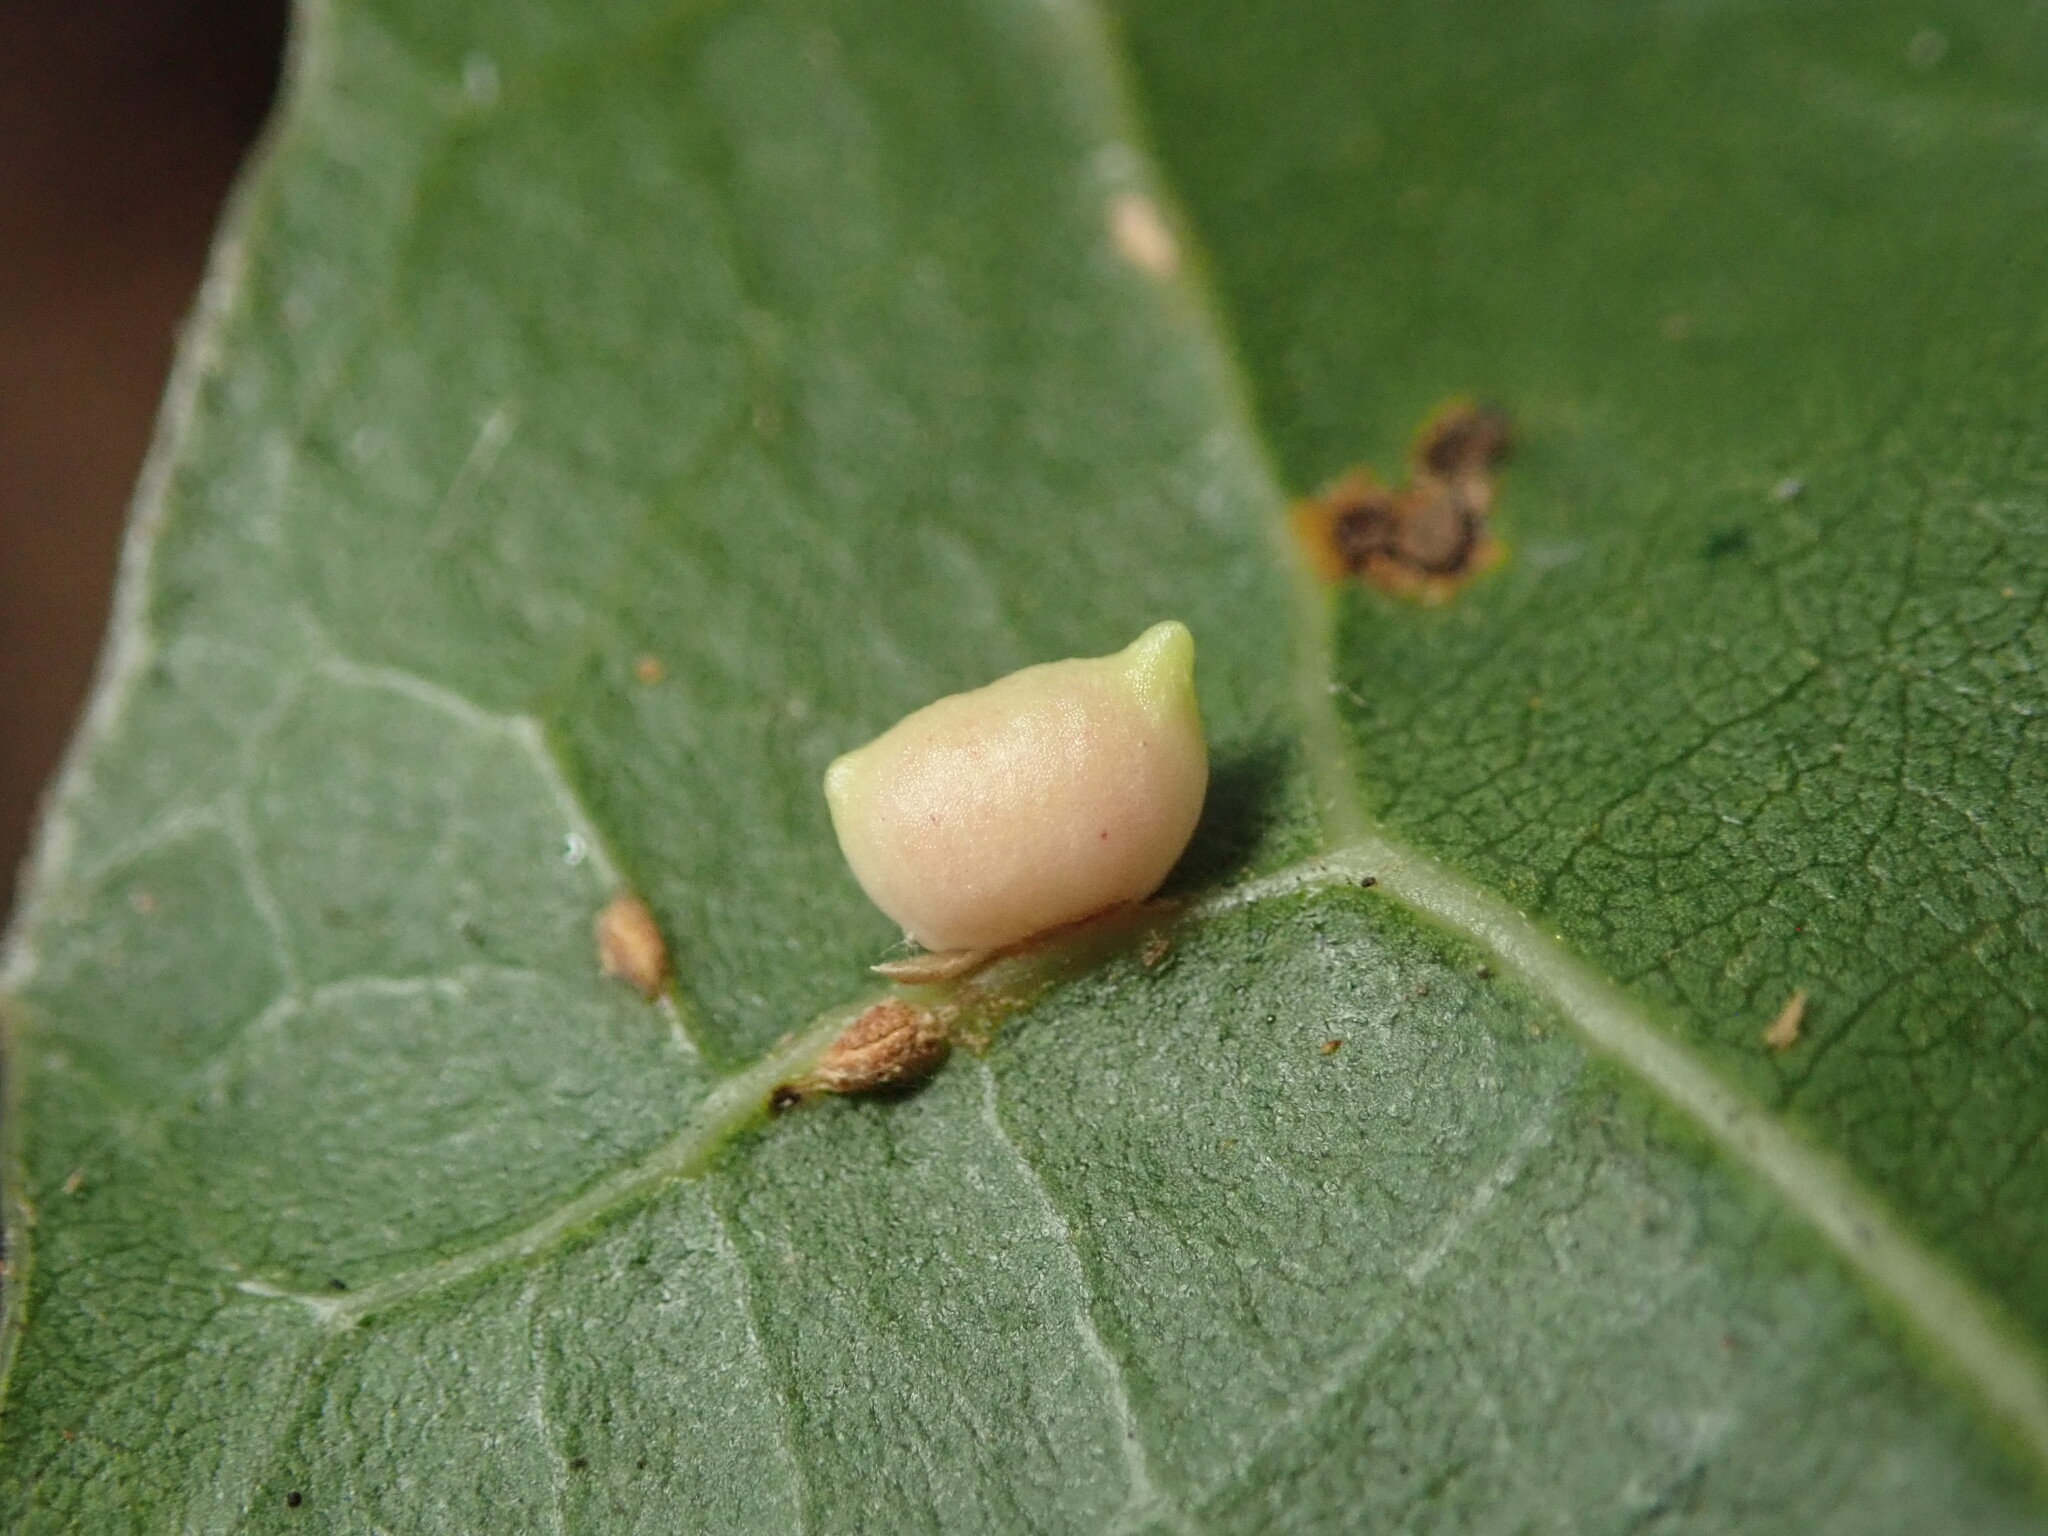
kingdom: Animalia
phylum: Arthropoda
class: Insecta
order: Hymenoptera
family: Cynipidae
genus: Dryocosmus
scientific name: Dryocosmus
